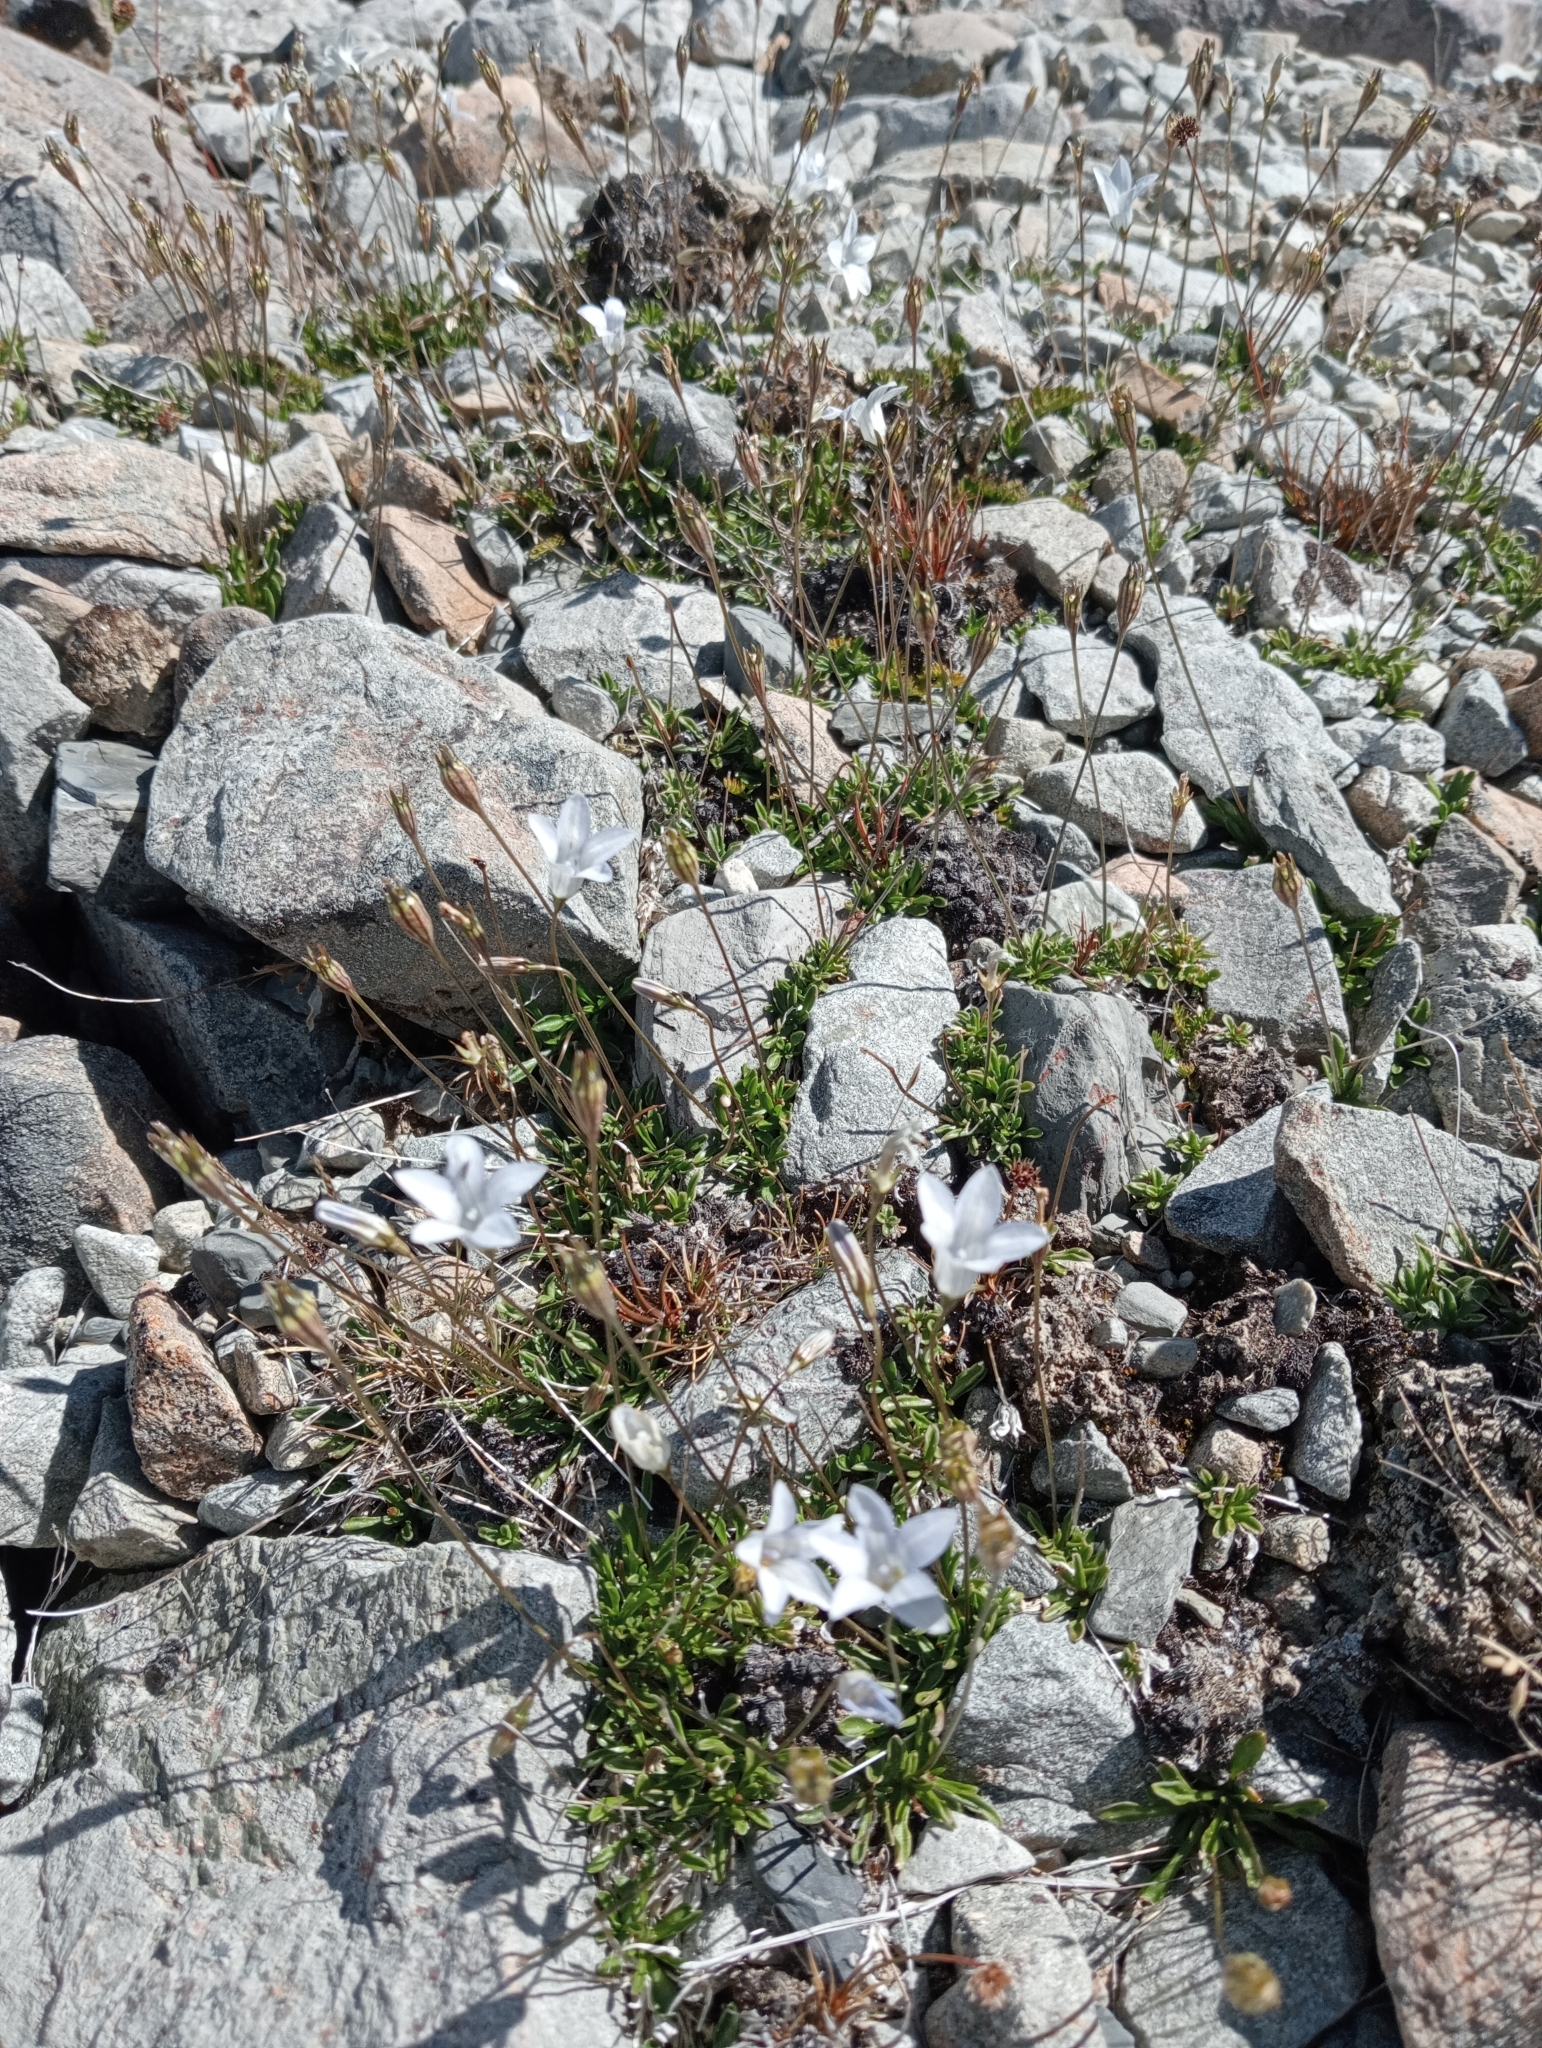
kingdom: Plantae
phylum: Tracheophyta
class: Magnoliopsida
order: Asterales
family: Campanulaceae
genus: Wahlenbergia
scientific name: Wahlenbergia albomarginata
